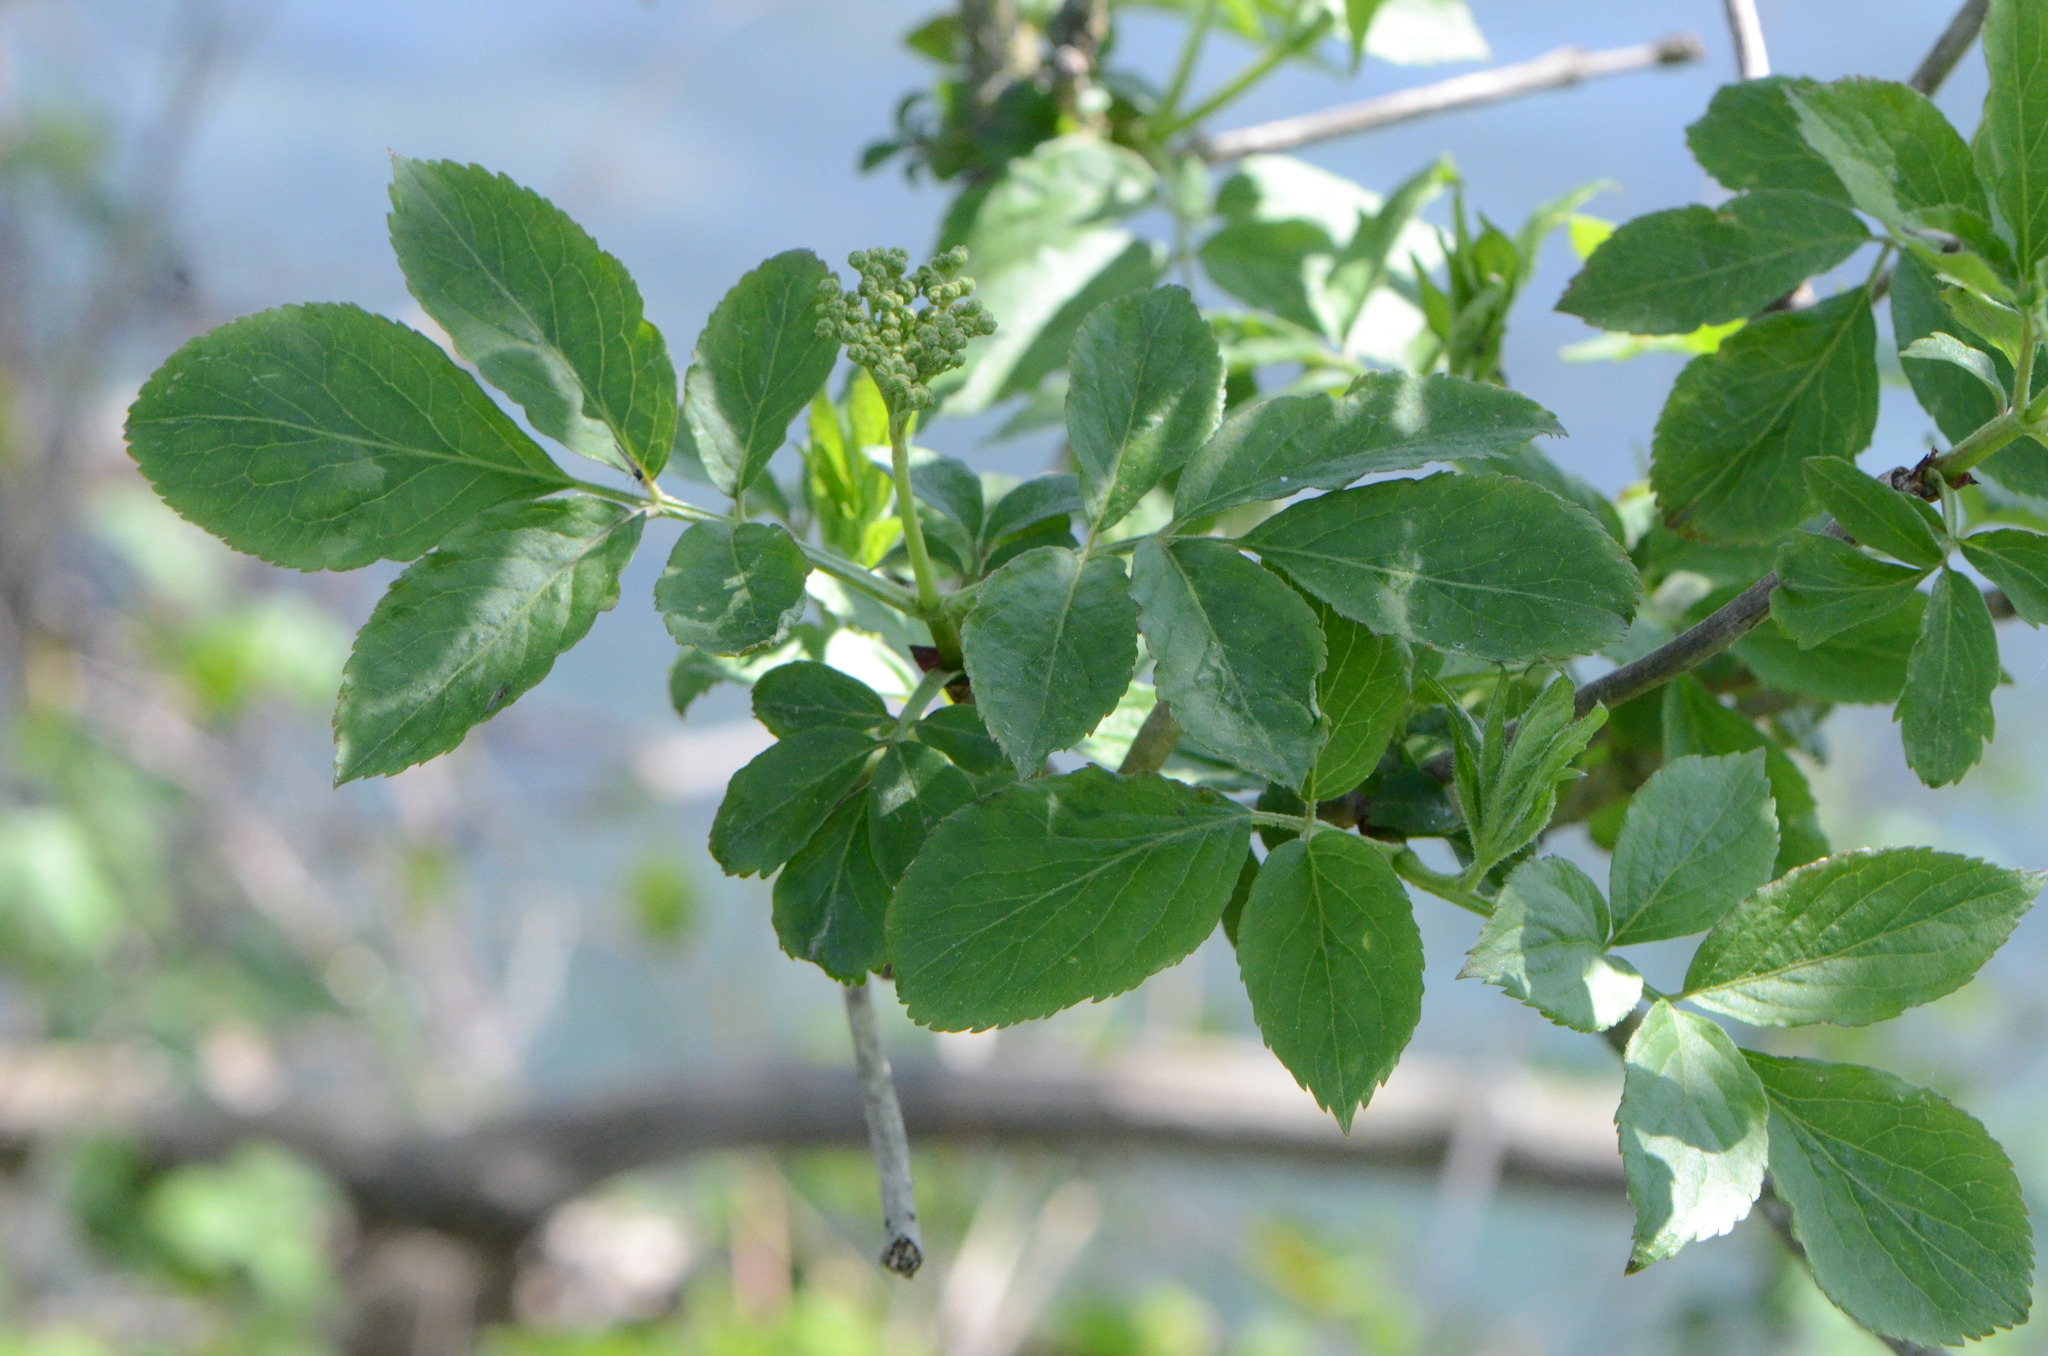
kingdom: Plantae
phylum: Tracheophyta
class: Magnoliopsida
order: Dipsacales
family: Viburnaceae
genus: Sambucus
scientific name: Sambucus nigra
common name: Elder
